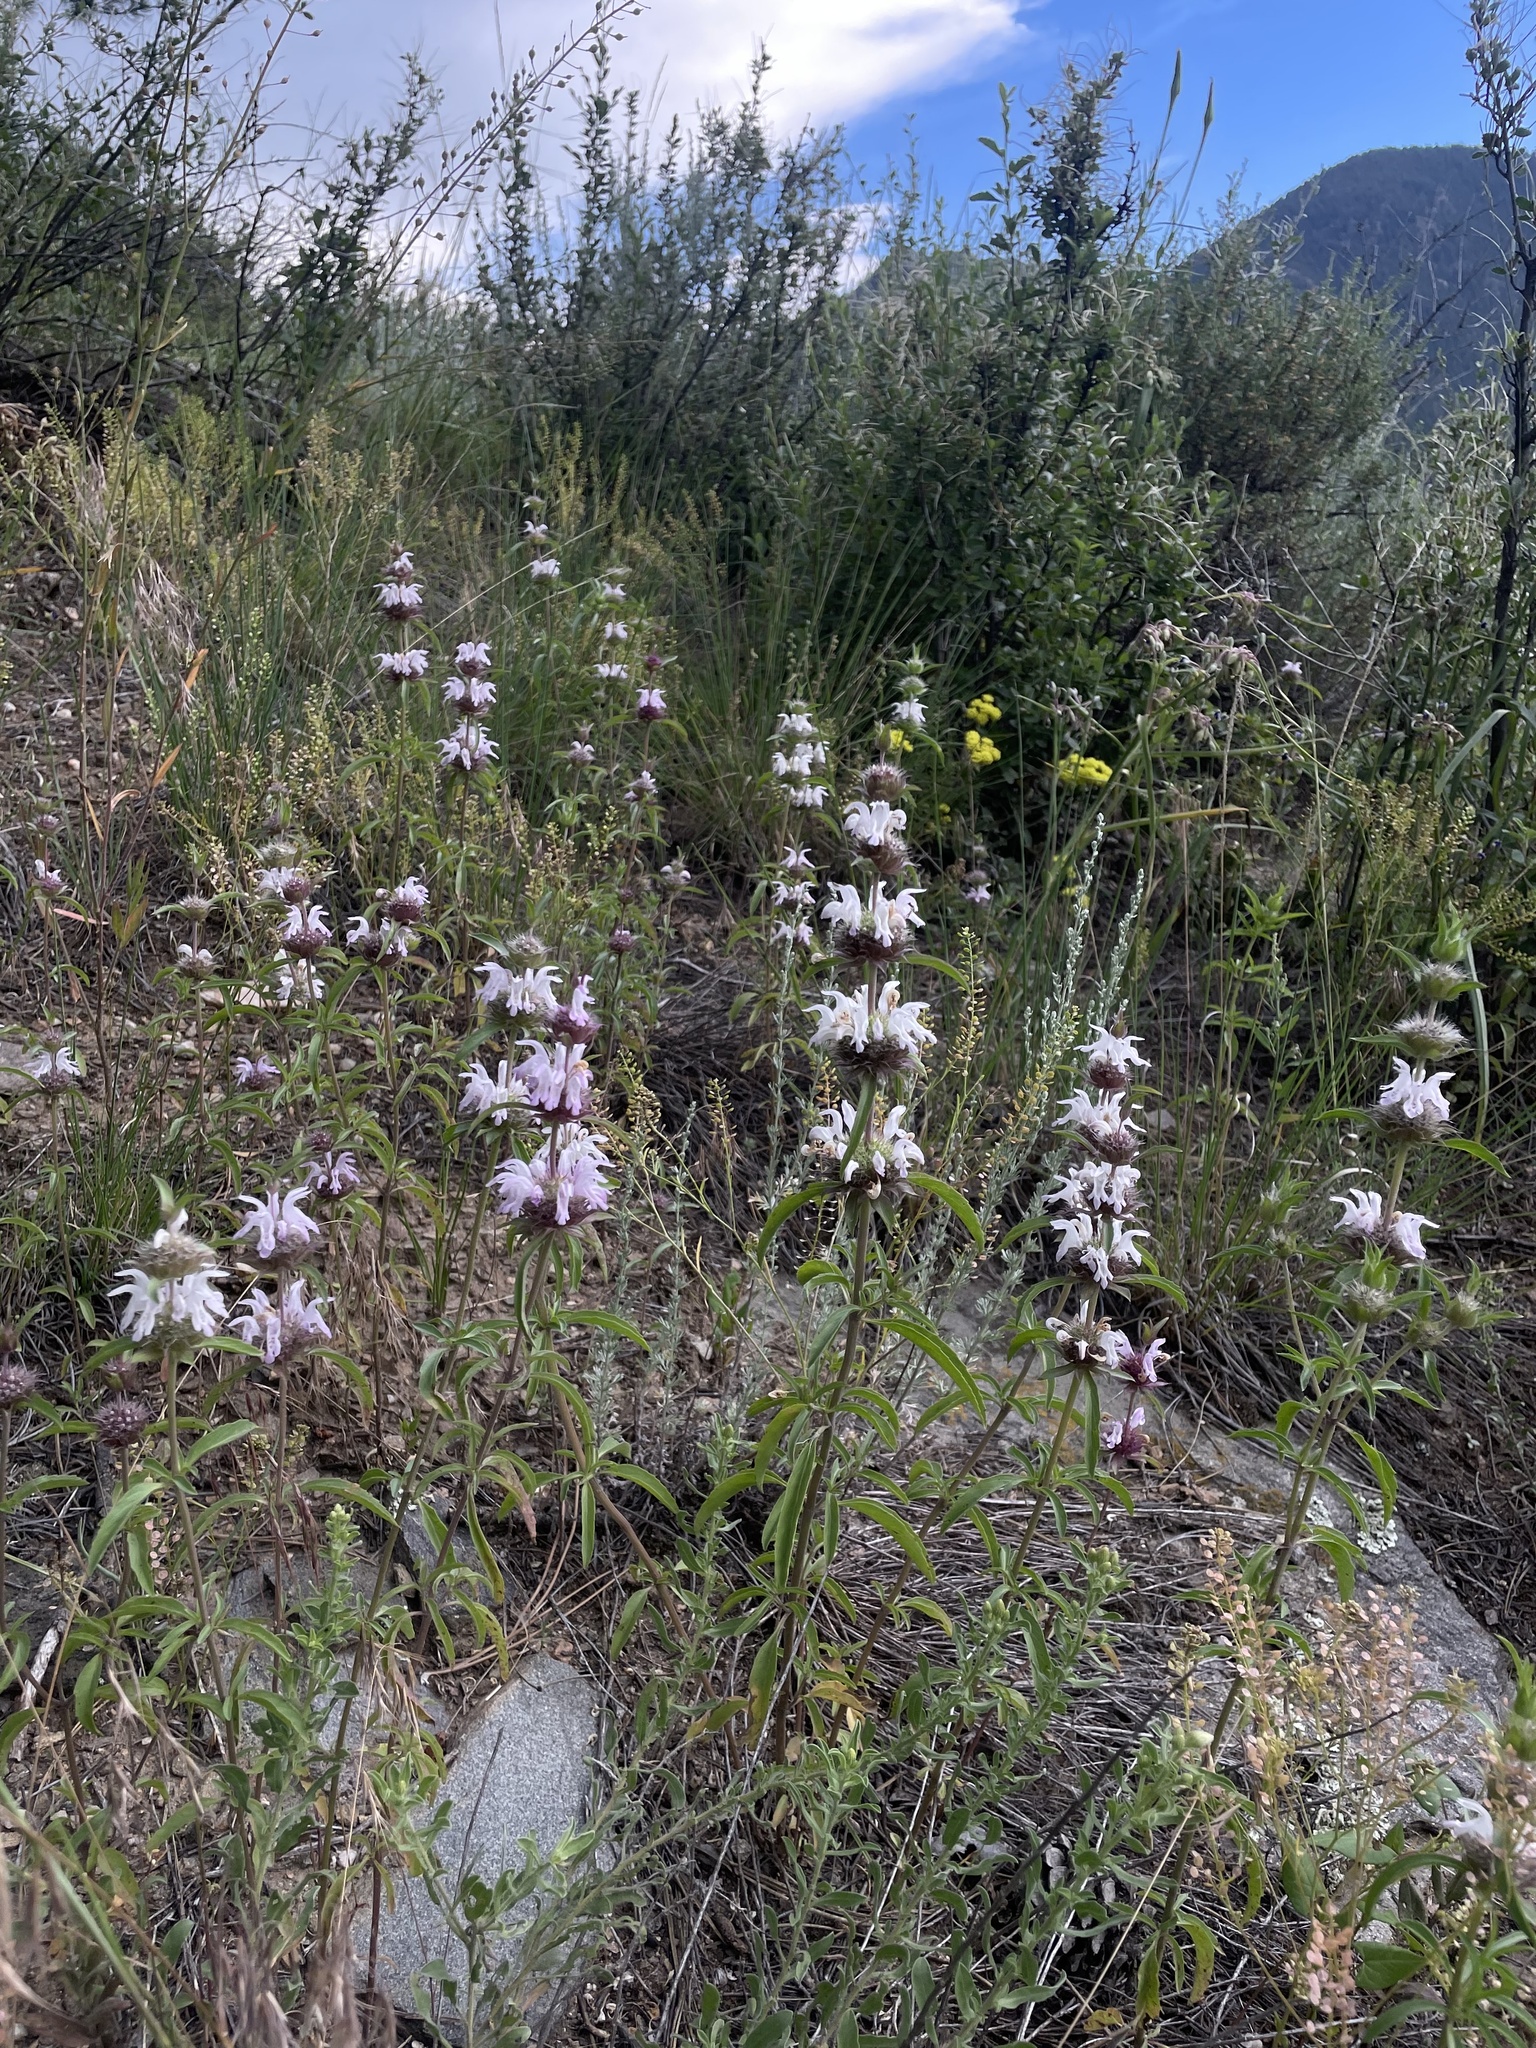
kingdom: Plantae
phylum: Tracheophyta
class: Magnoliopsida
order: Lamiales
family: Lamiaceae
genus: Monarda
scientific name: Monarda pectinata
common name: Plains beebalm
